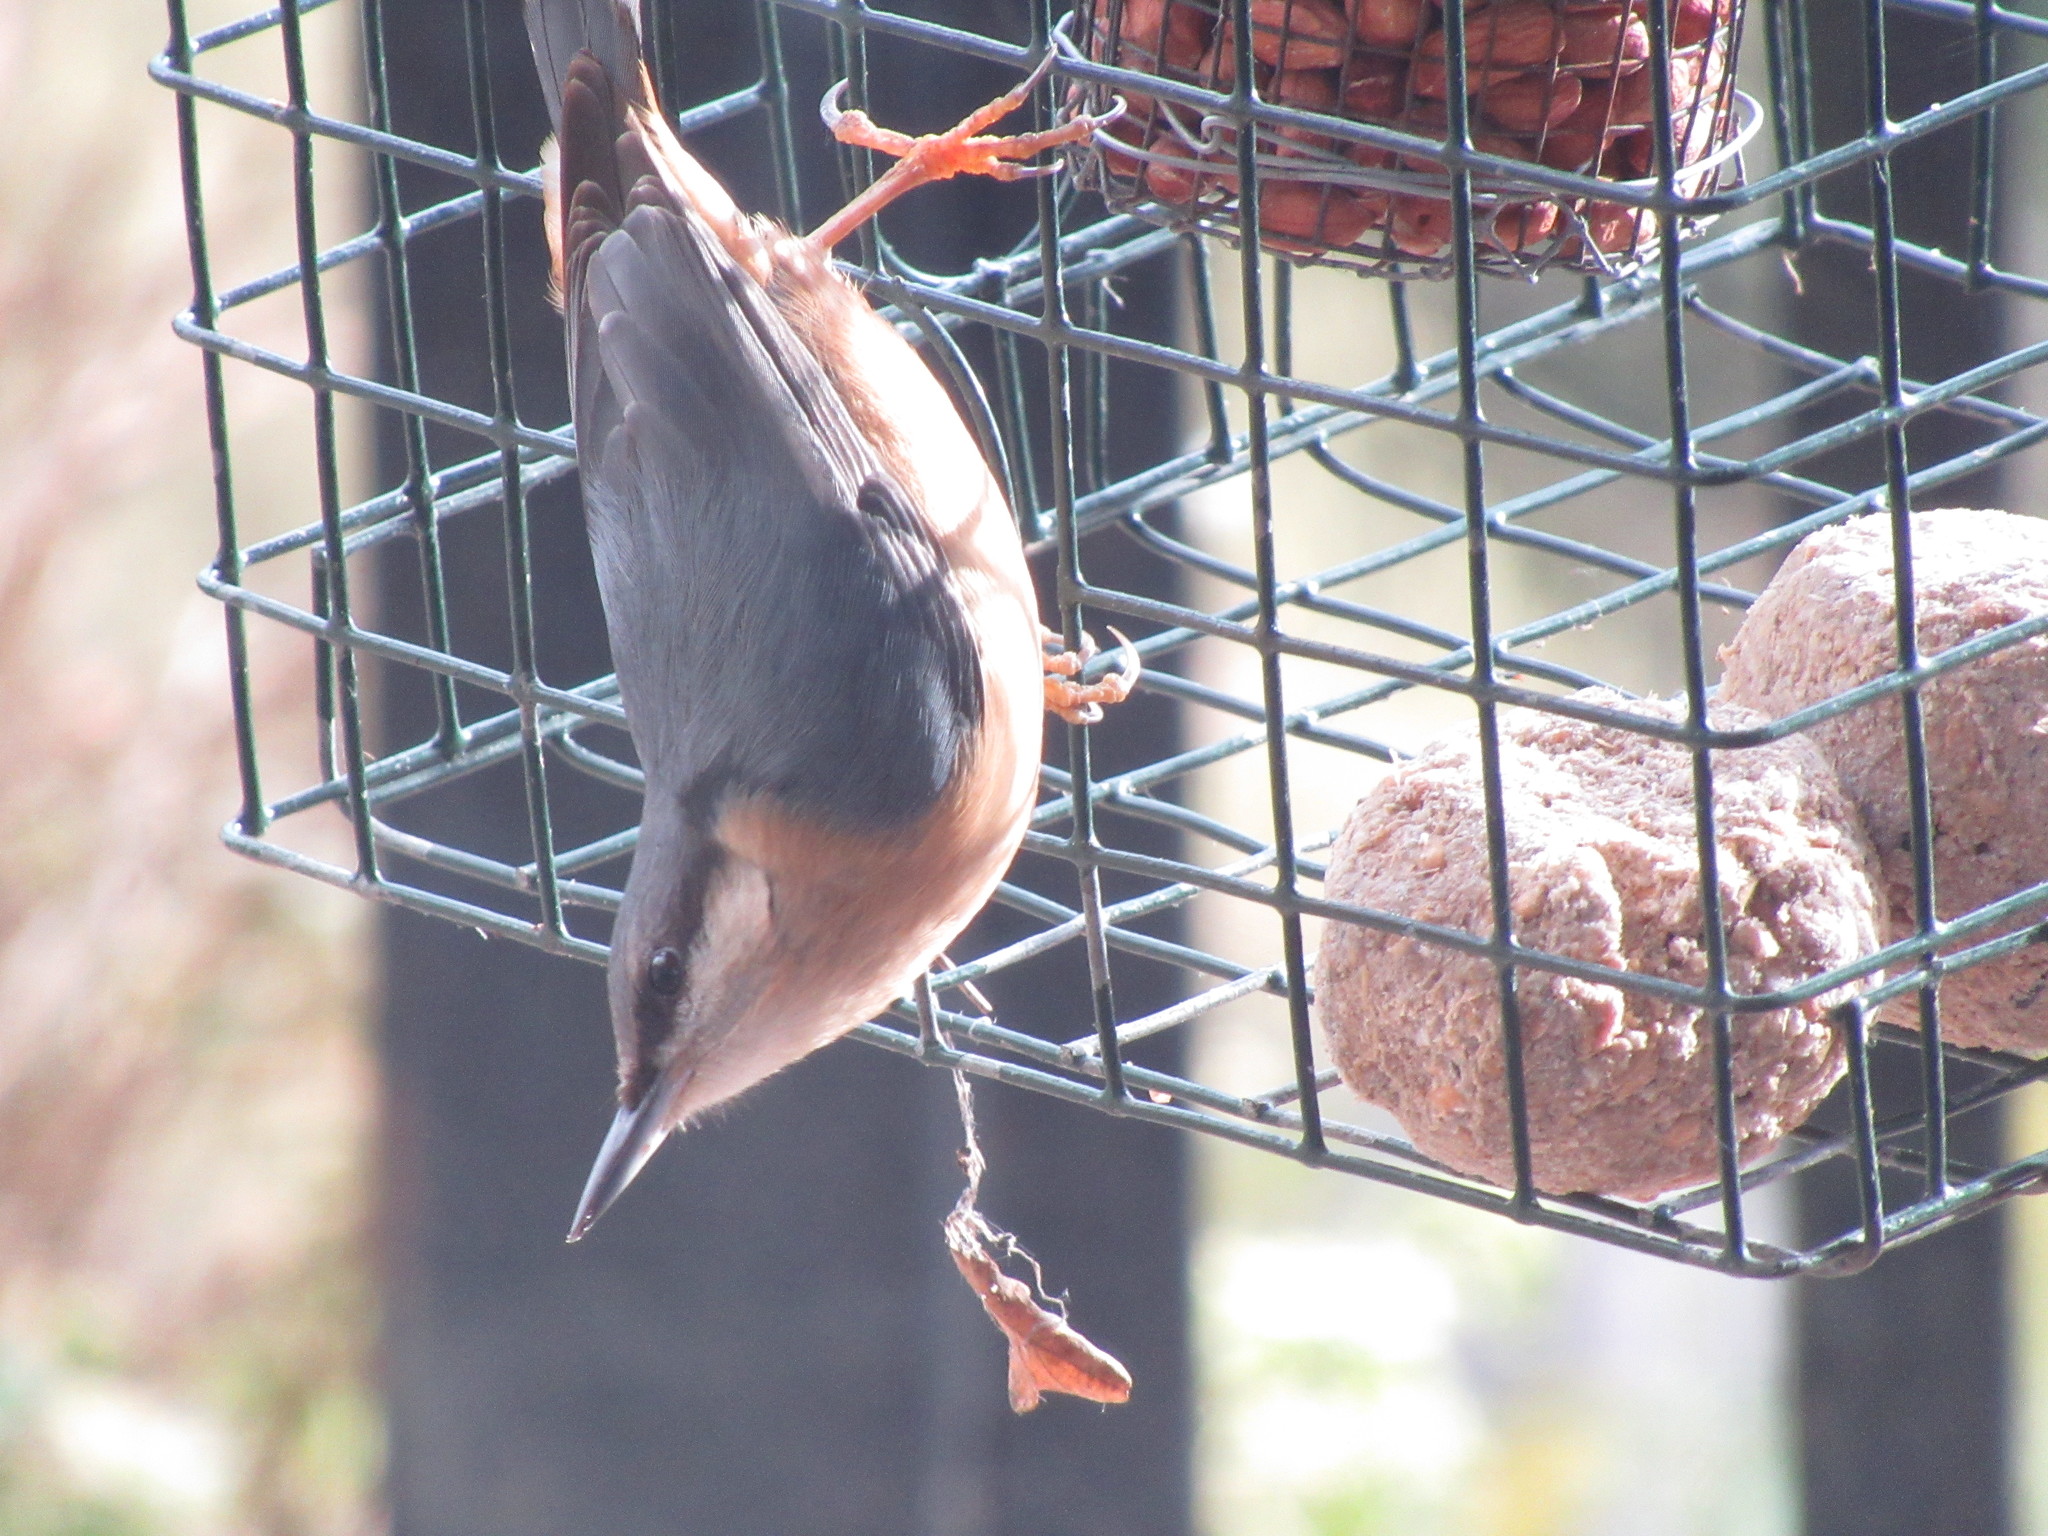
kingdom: Animalia
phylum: Chordata
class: Aves
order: Passeriformes
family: Sittidae
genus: Sitta
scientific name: Sitta europaea
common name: Eurasian nuthatch
